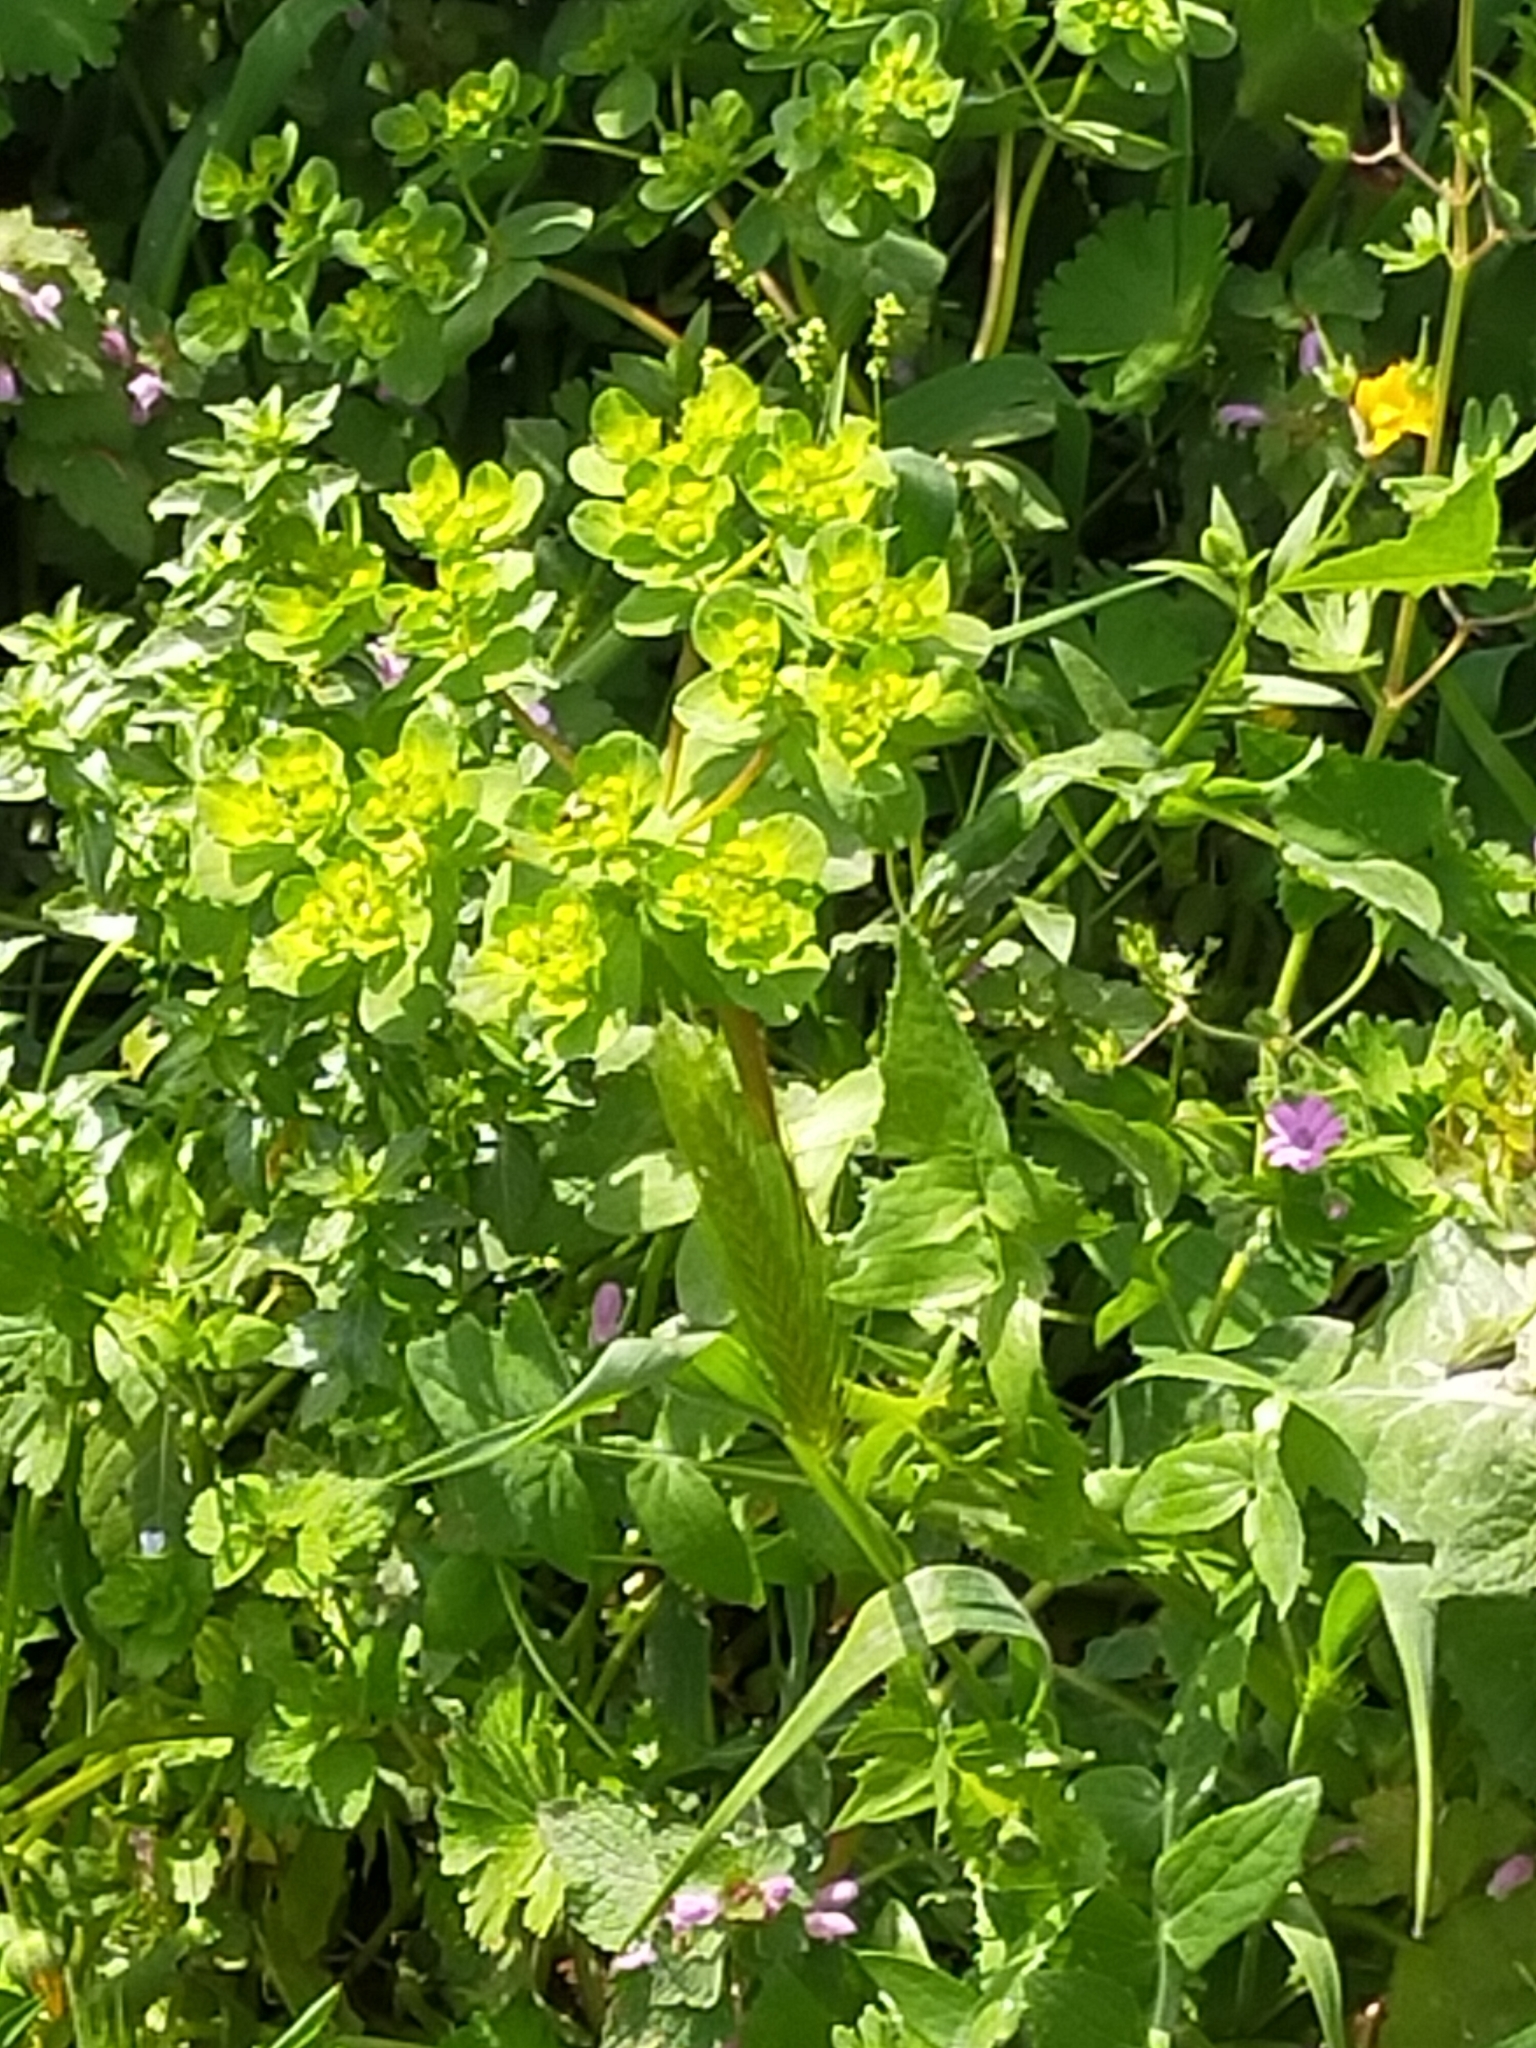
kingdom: Plantae
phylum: Tracheophyta
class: Magnoliopsida
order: Malpighiales
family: Euphorbiaceae
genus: Euphorbia
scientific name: Euphorbia helioscopia
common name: Sun spurge
